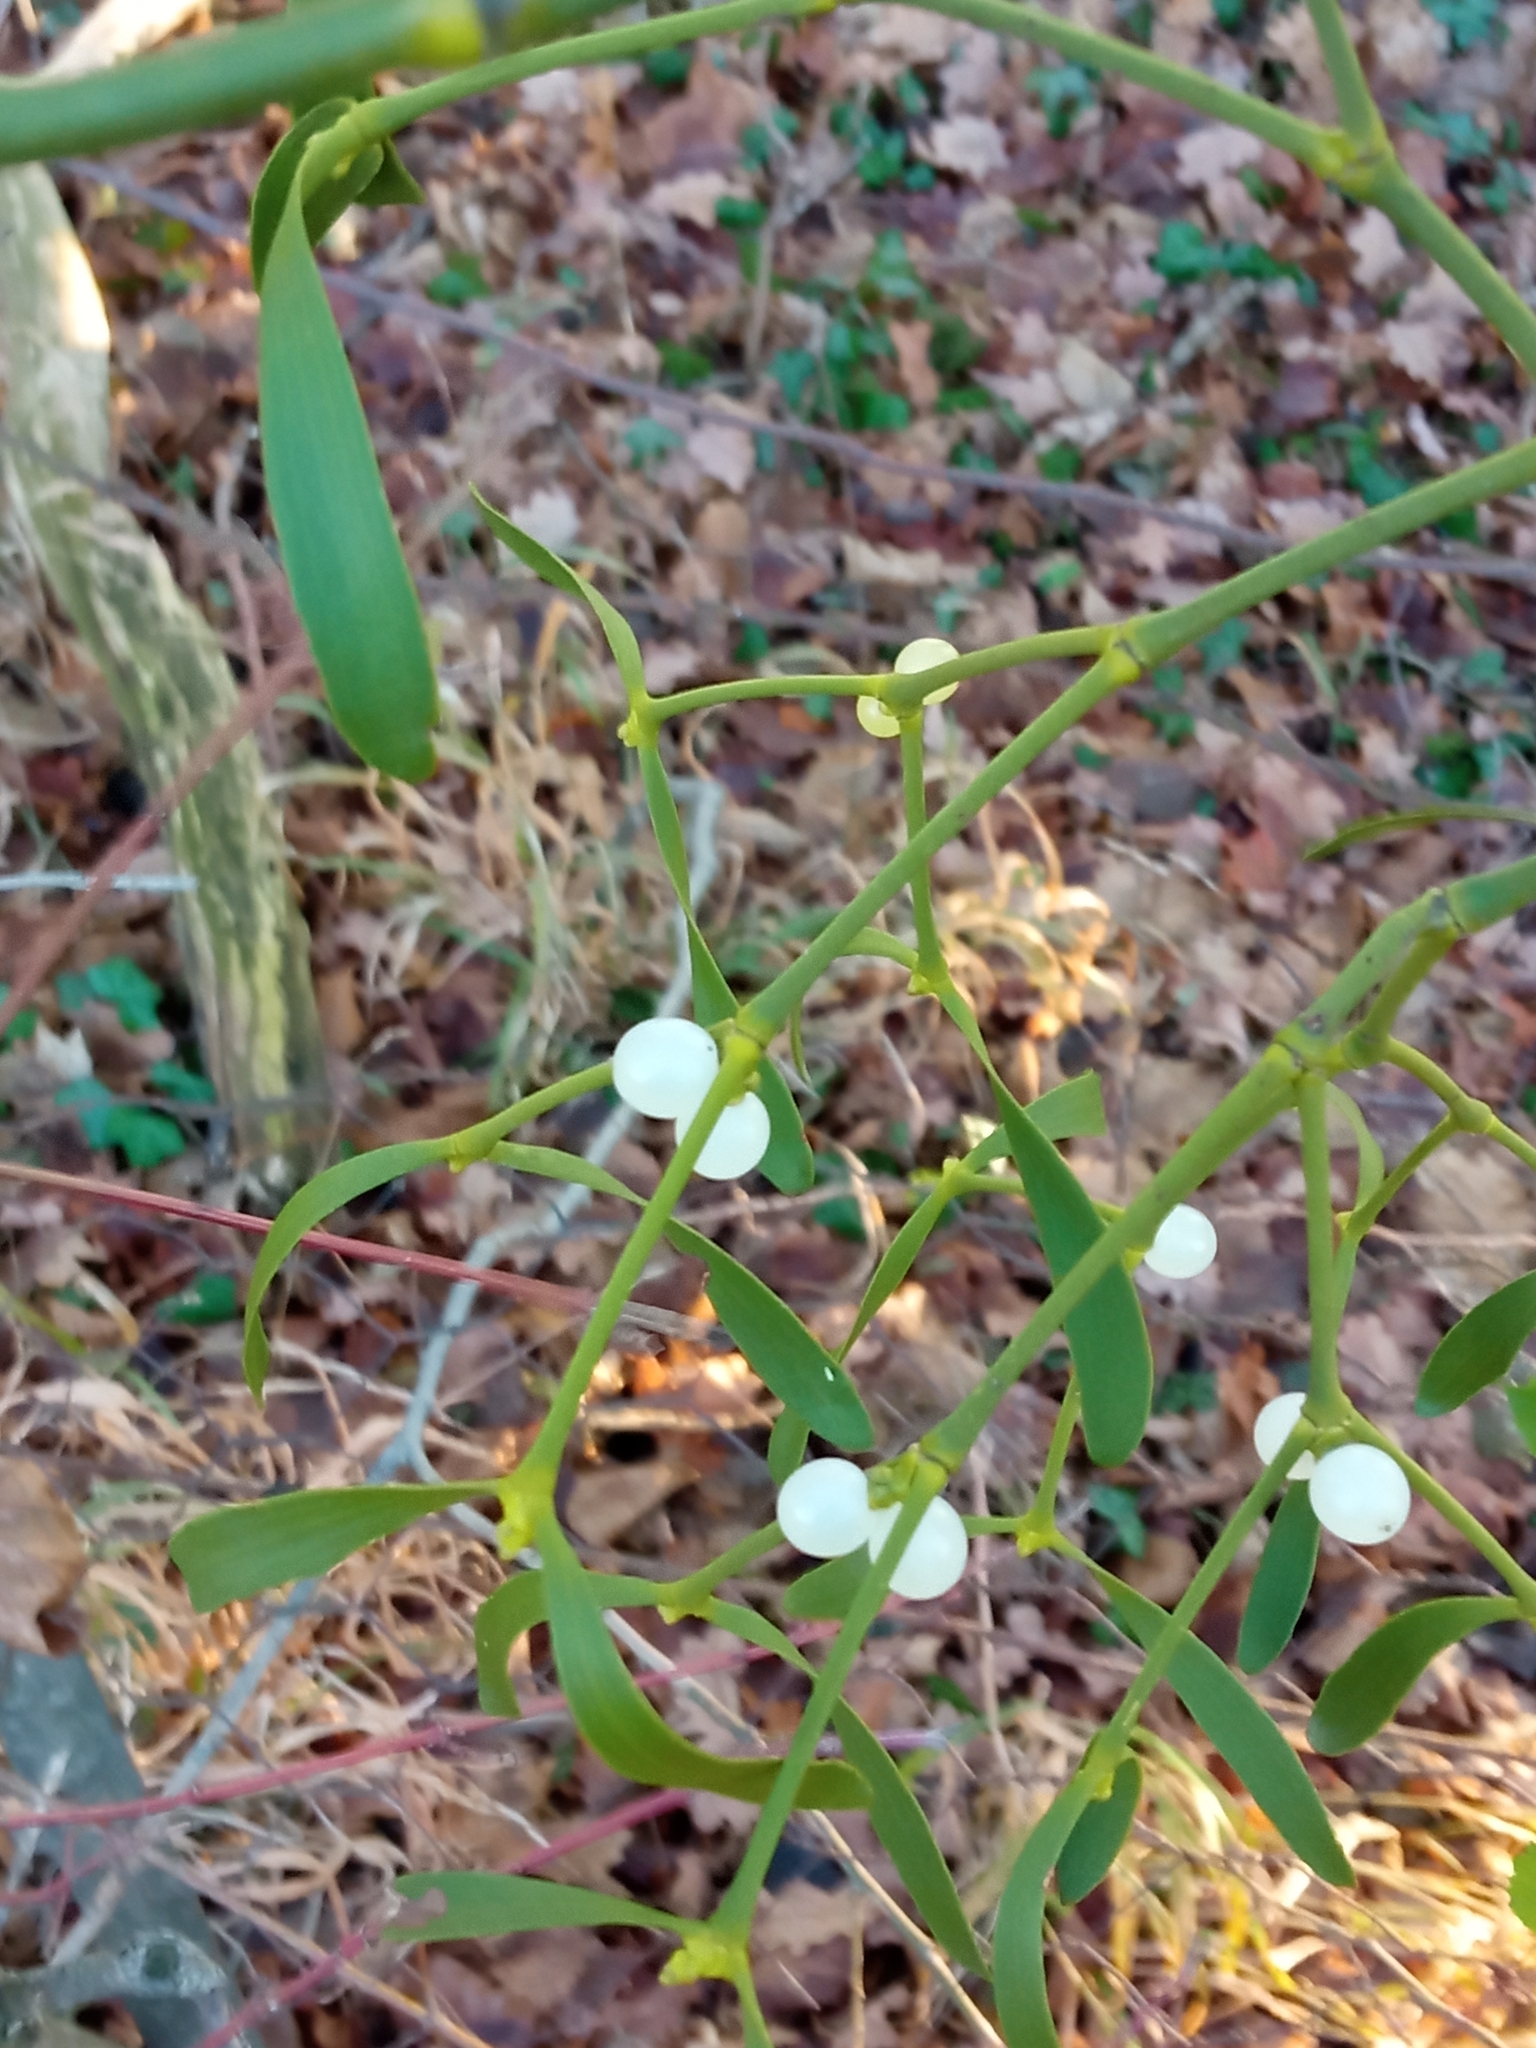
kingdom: Plantae
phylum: Tracheophyta
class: Magnoliopsida
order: Santalales
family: Viscaceae
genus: Viscum
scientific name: Viscum album
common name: Mistletoe
